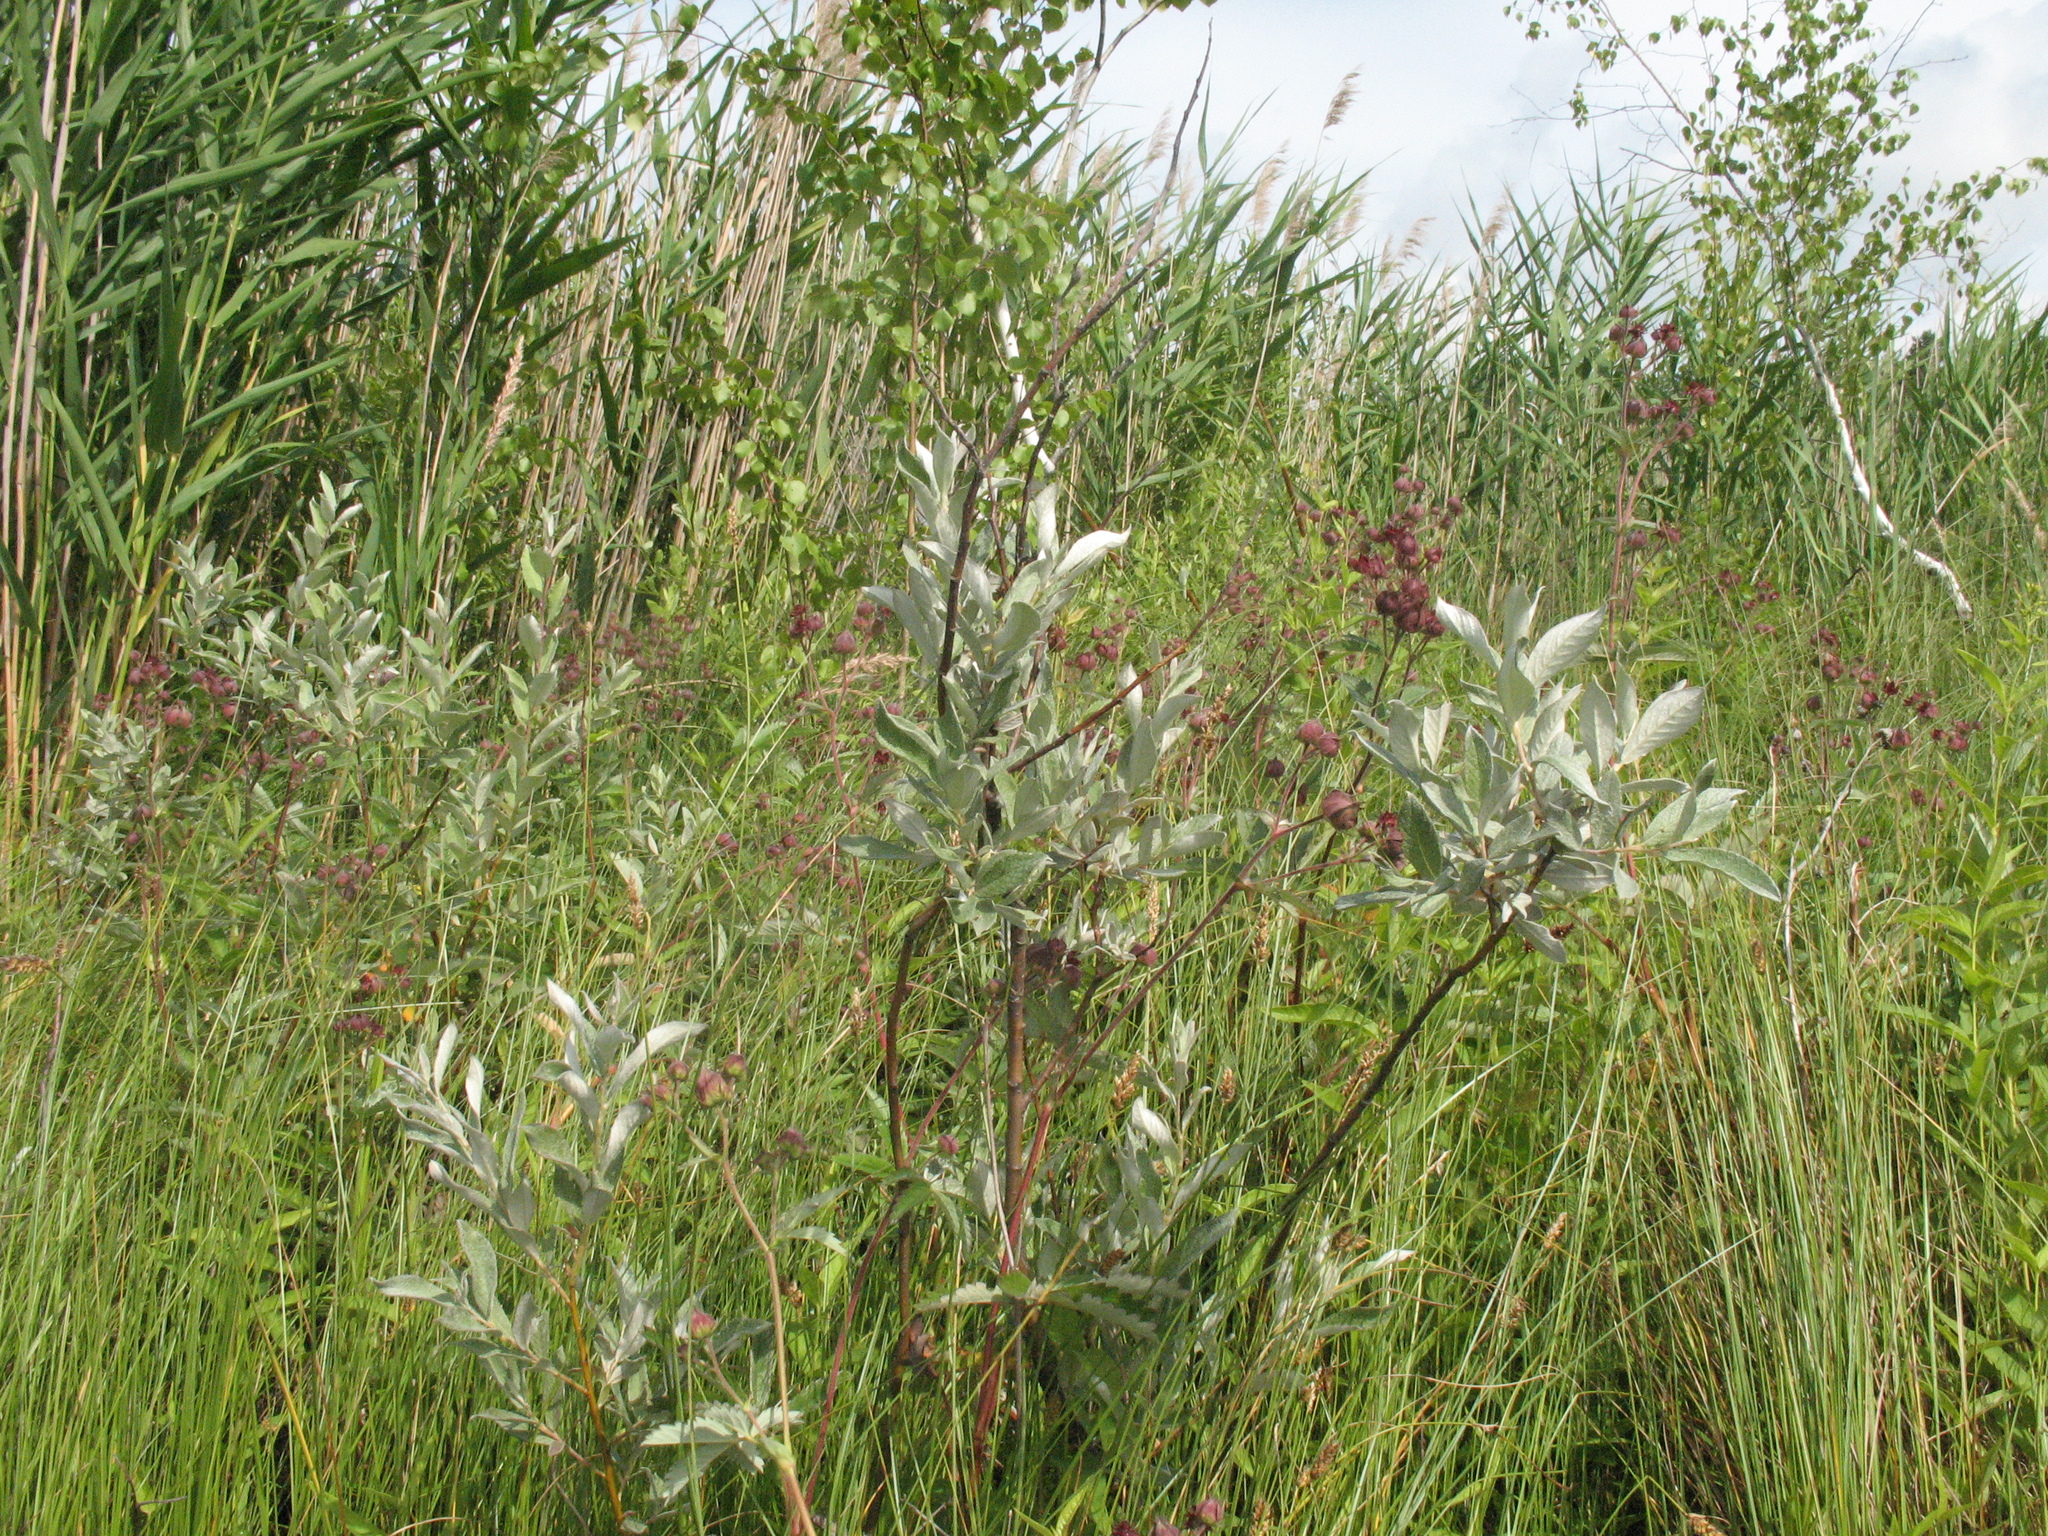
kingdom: Plantae
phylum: Tracheophyta
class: Magnoliopsida
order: Malpighiales
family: Salicaceae
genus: Salix
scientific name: Salix lapponum
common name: Downy willow
